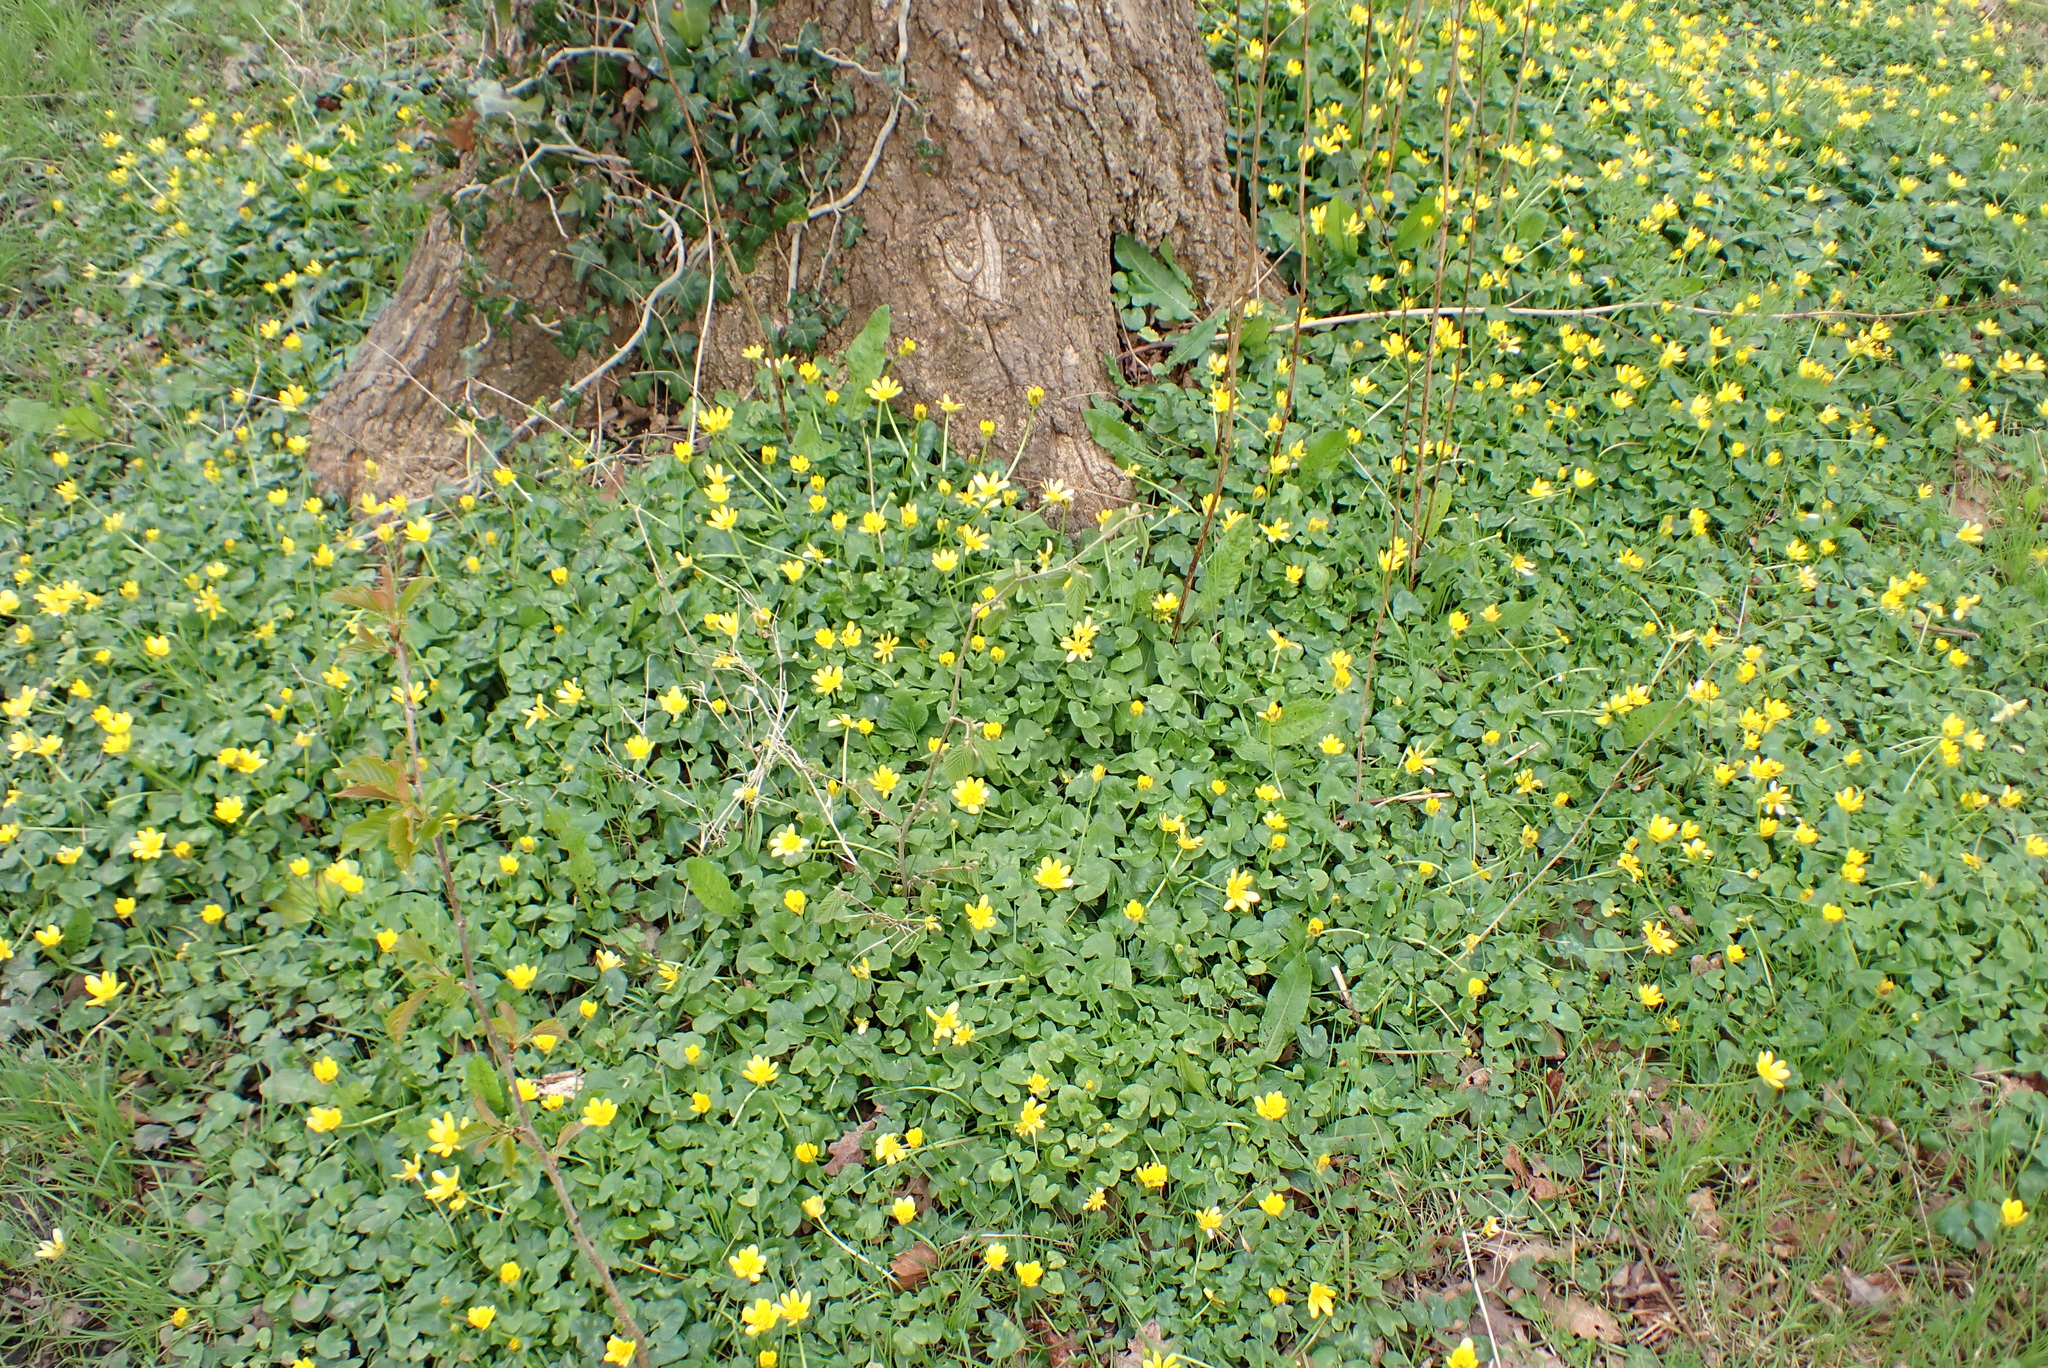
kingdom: Plantae
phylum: Tracheophyta
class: Magnoliopsida
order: Ranunculales
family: Ranunculaceae
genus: Ficaria
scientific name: Ficaria verna
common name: Lesser celandine
